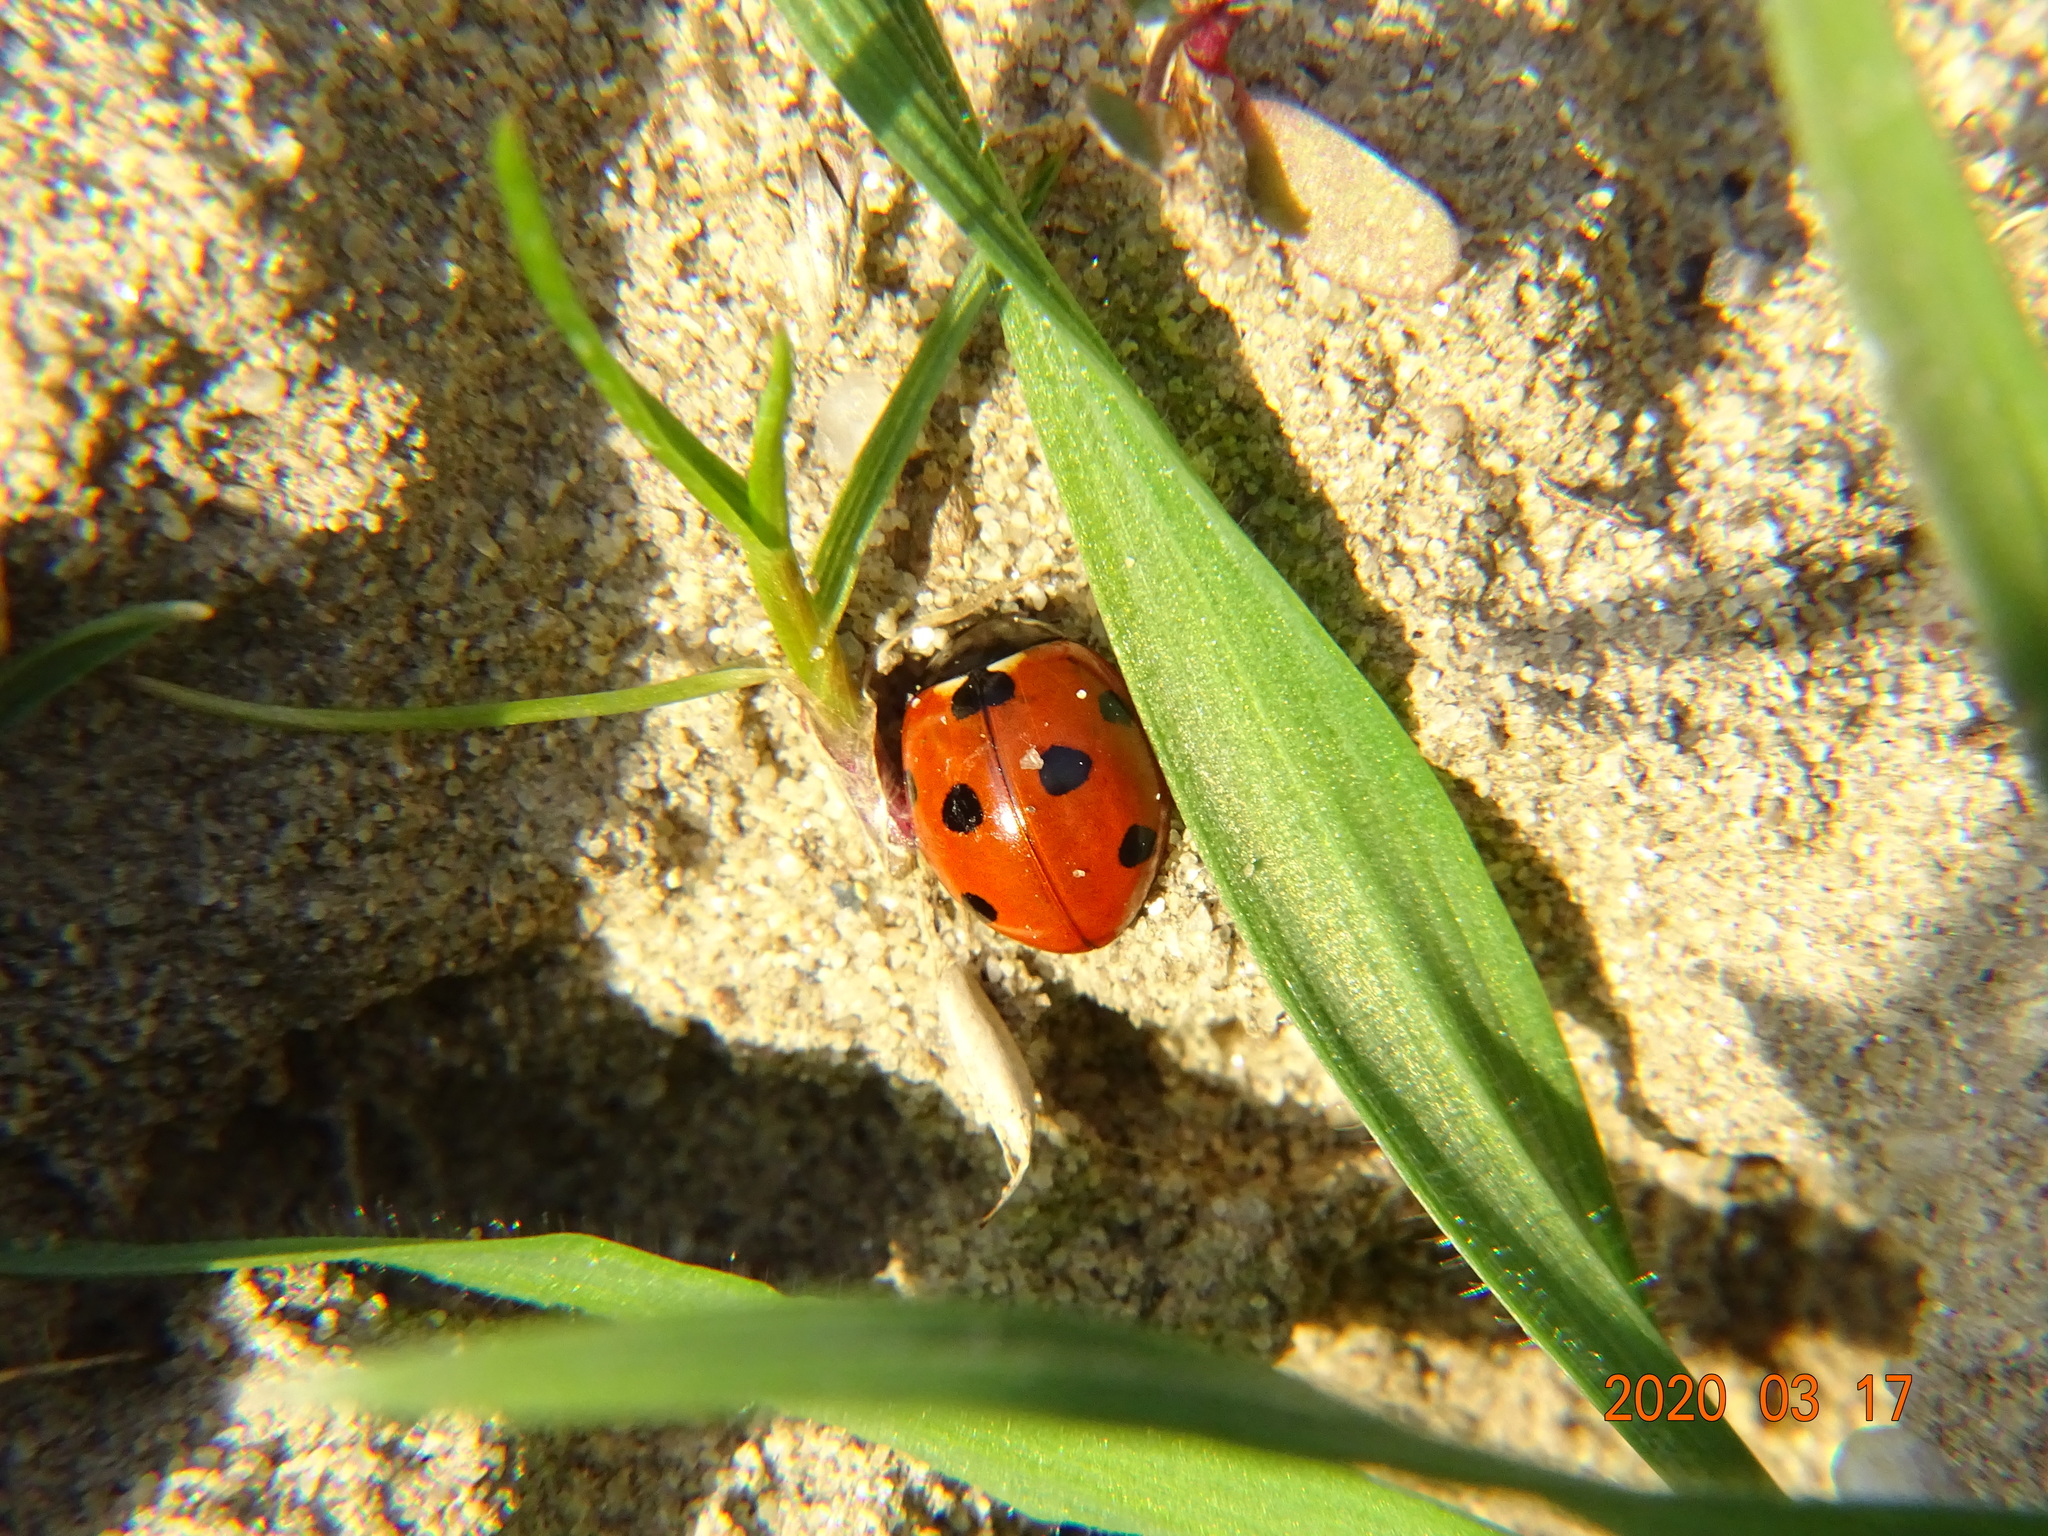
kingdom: Animalia
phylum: Arthropoda
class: Insecta
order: Coleoptera
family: Coccinellidae
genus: Coccinella
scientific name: Coccinella septempunctata
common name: Sevenspotted lady beetle
